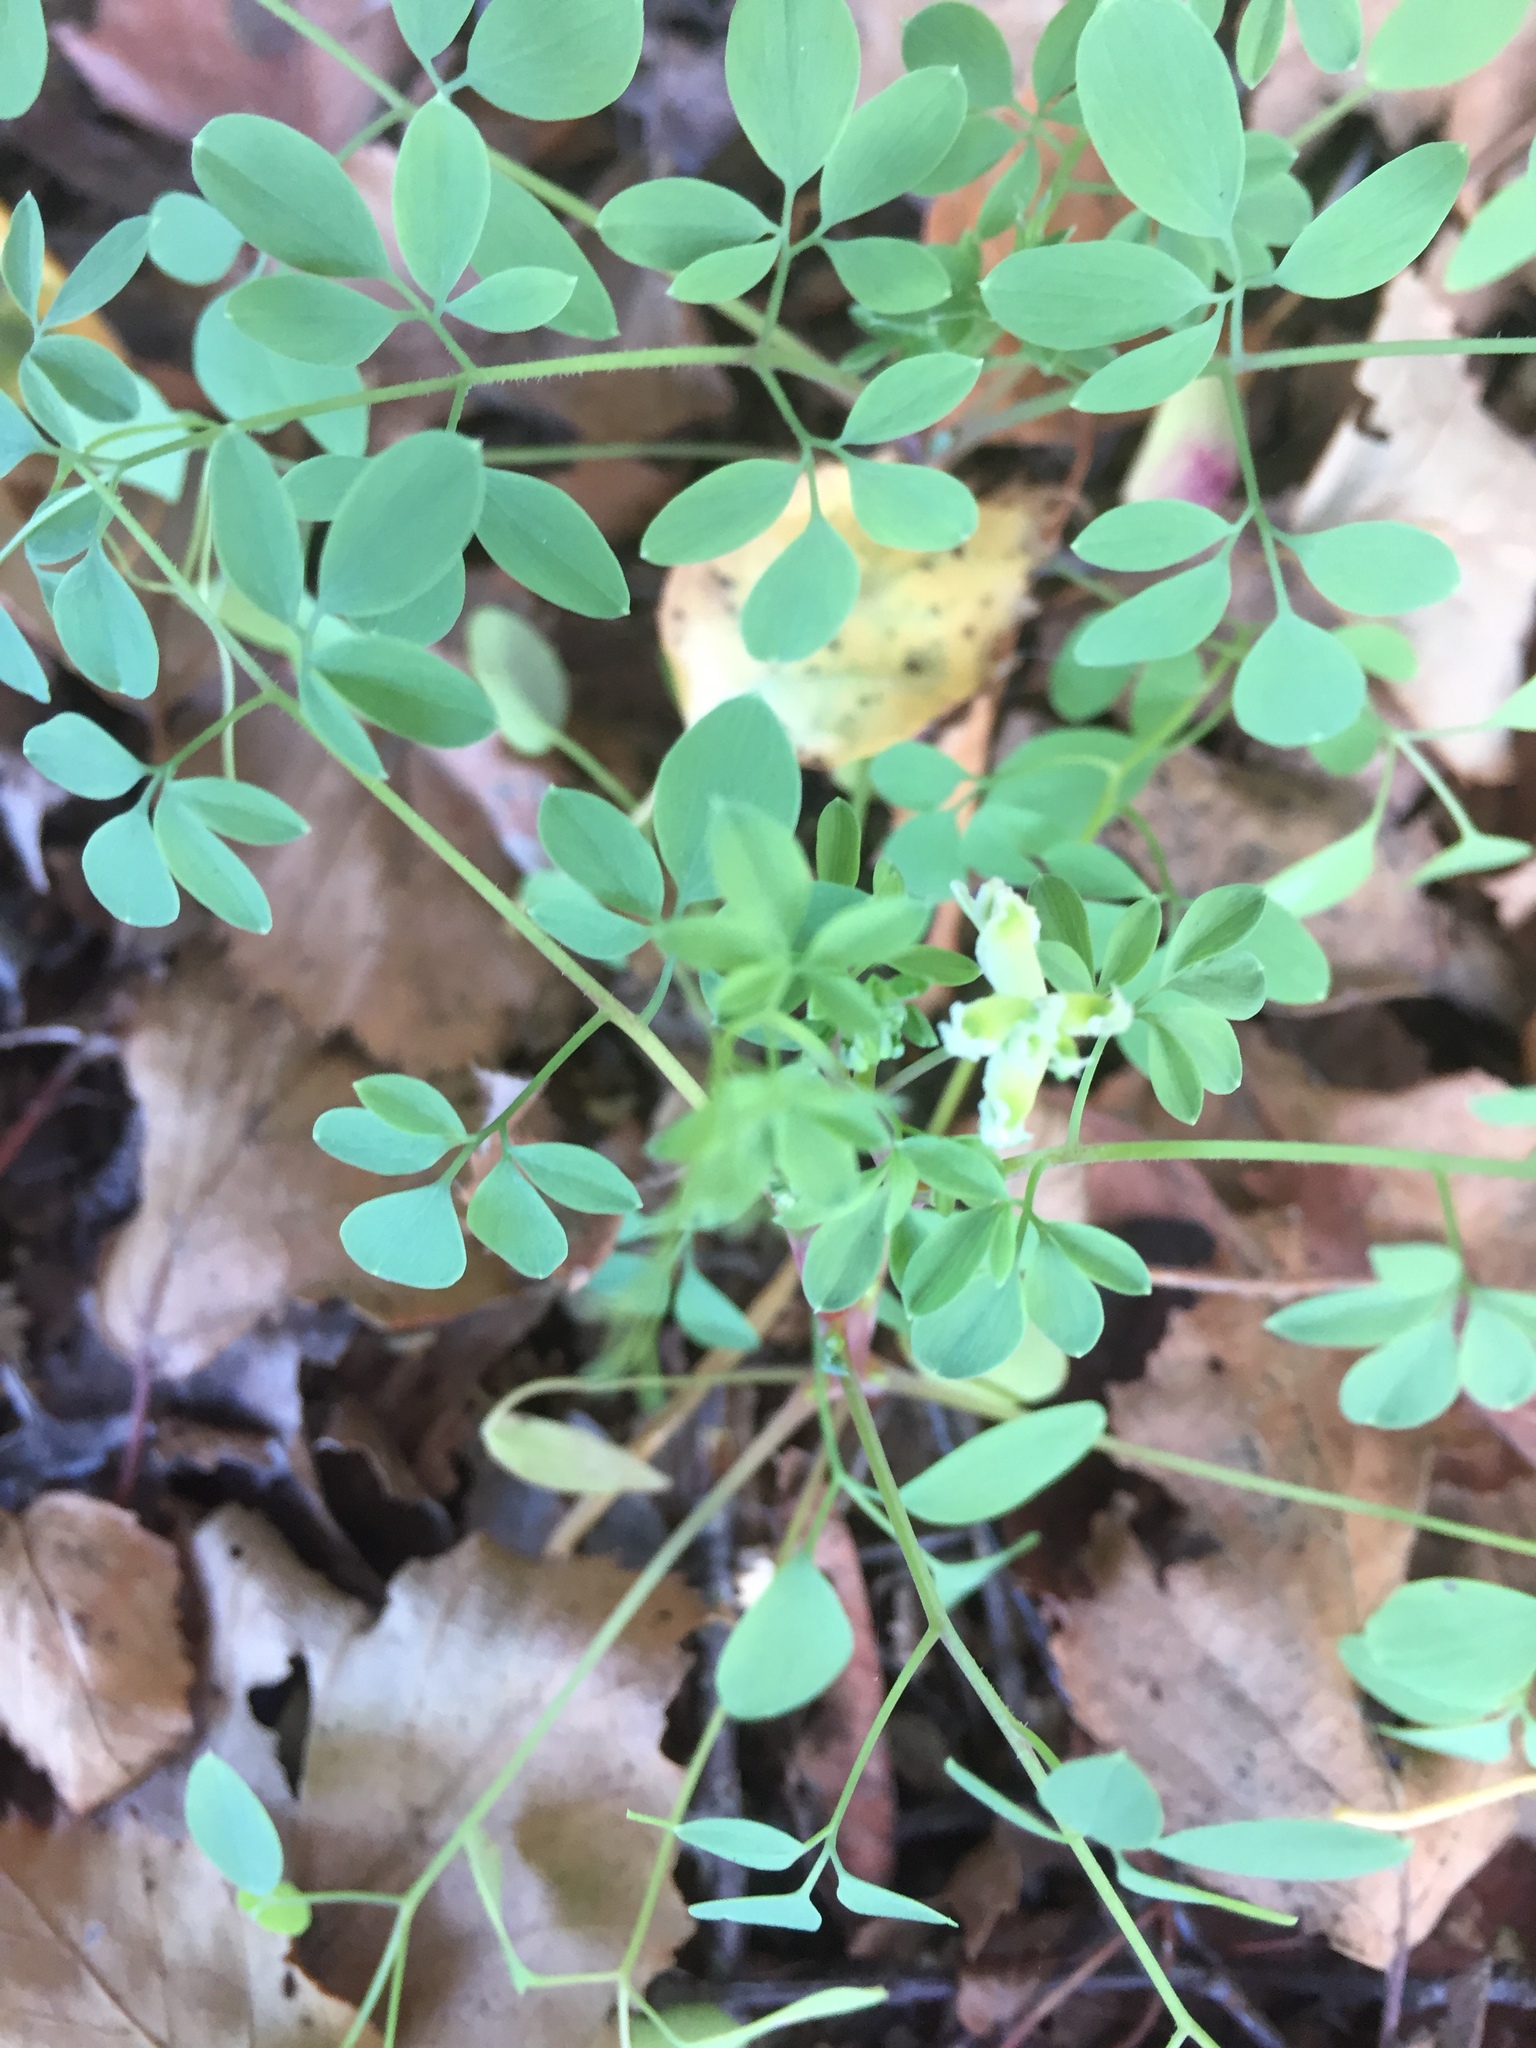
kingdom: Plantae
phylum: Tracheophyta
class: Magnoliopsida
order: Ranunculales
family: Papaveraceae
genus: Ceratocapnos
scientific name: Ceratocapnos claviculata
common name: Climbing corydalis
